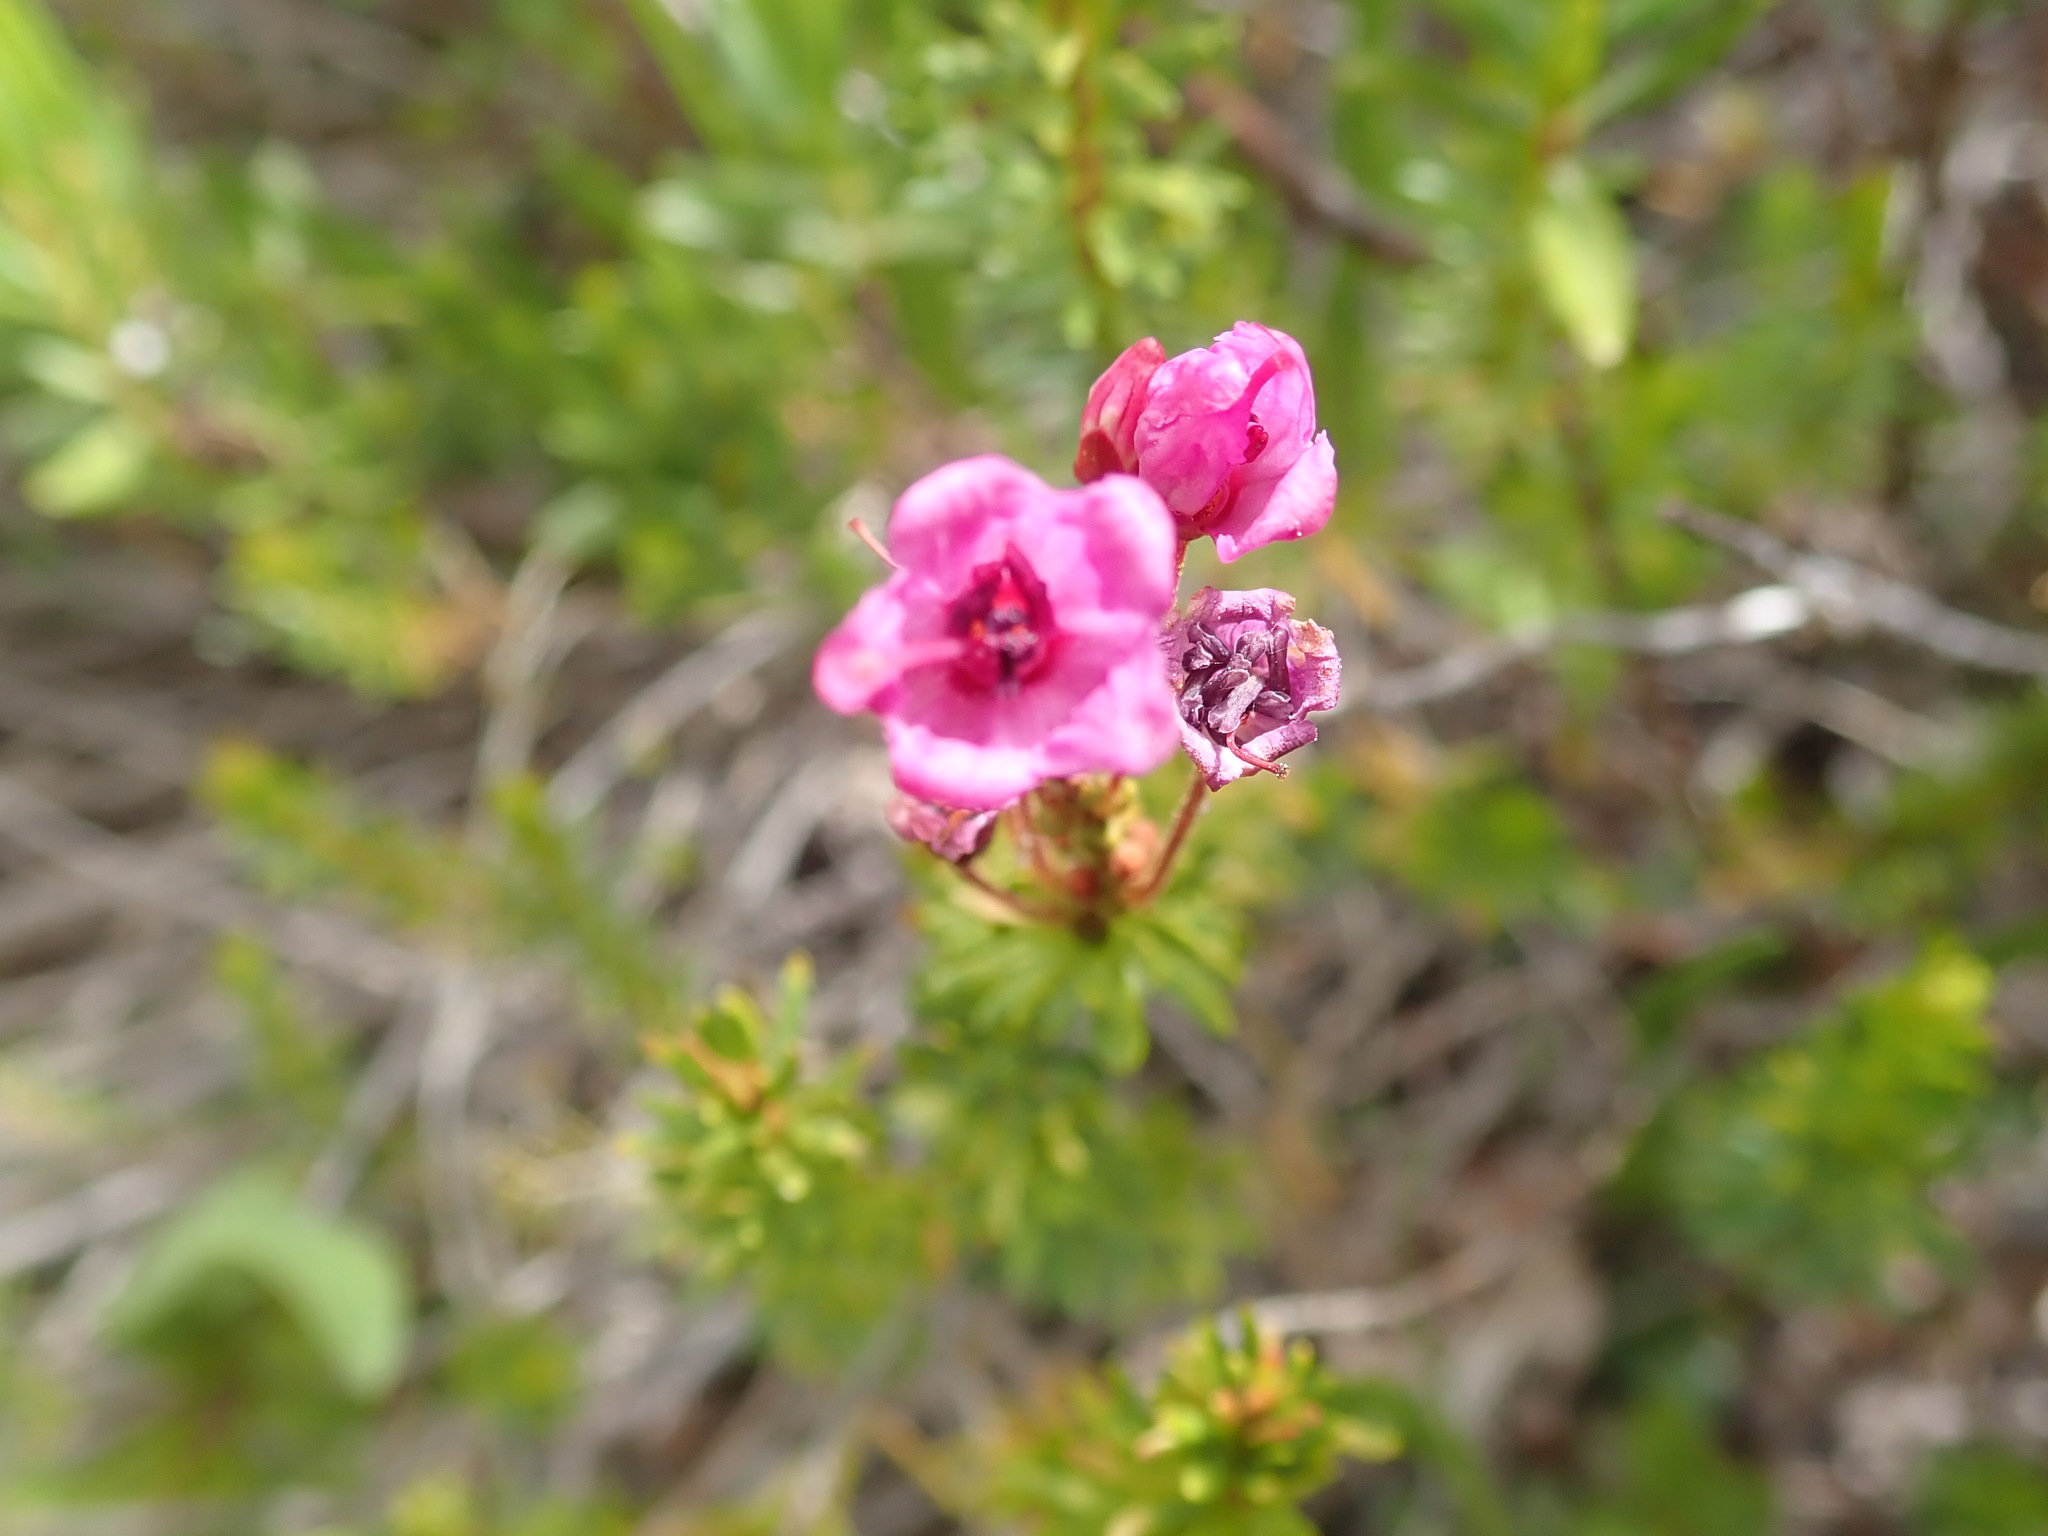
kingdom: Plantae
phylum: Tracheophyta
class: Magnoliopsida
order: Ericales
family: Ericaceae
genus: Phyllodoce
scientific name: Phyllodoce empetriformis
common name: Pink mountain heather
